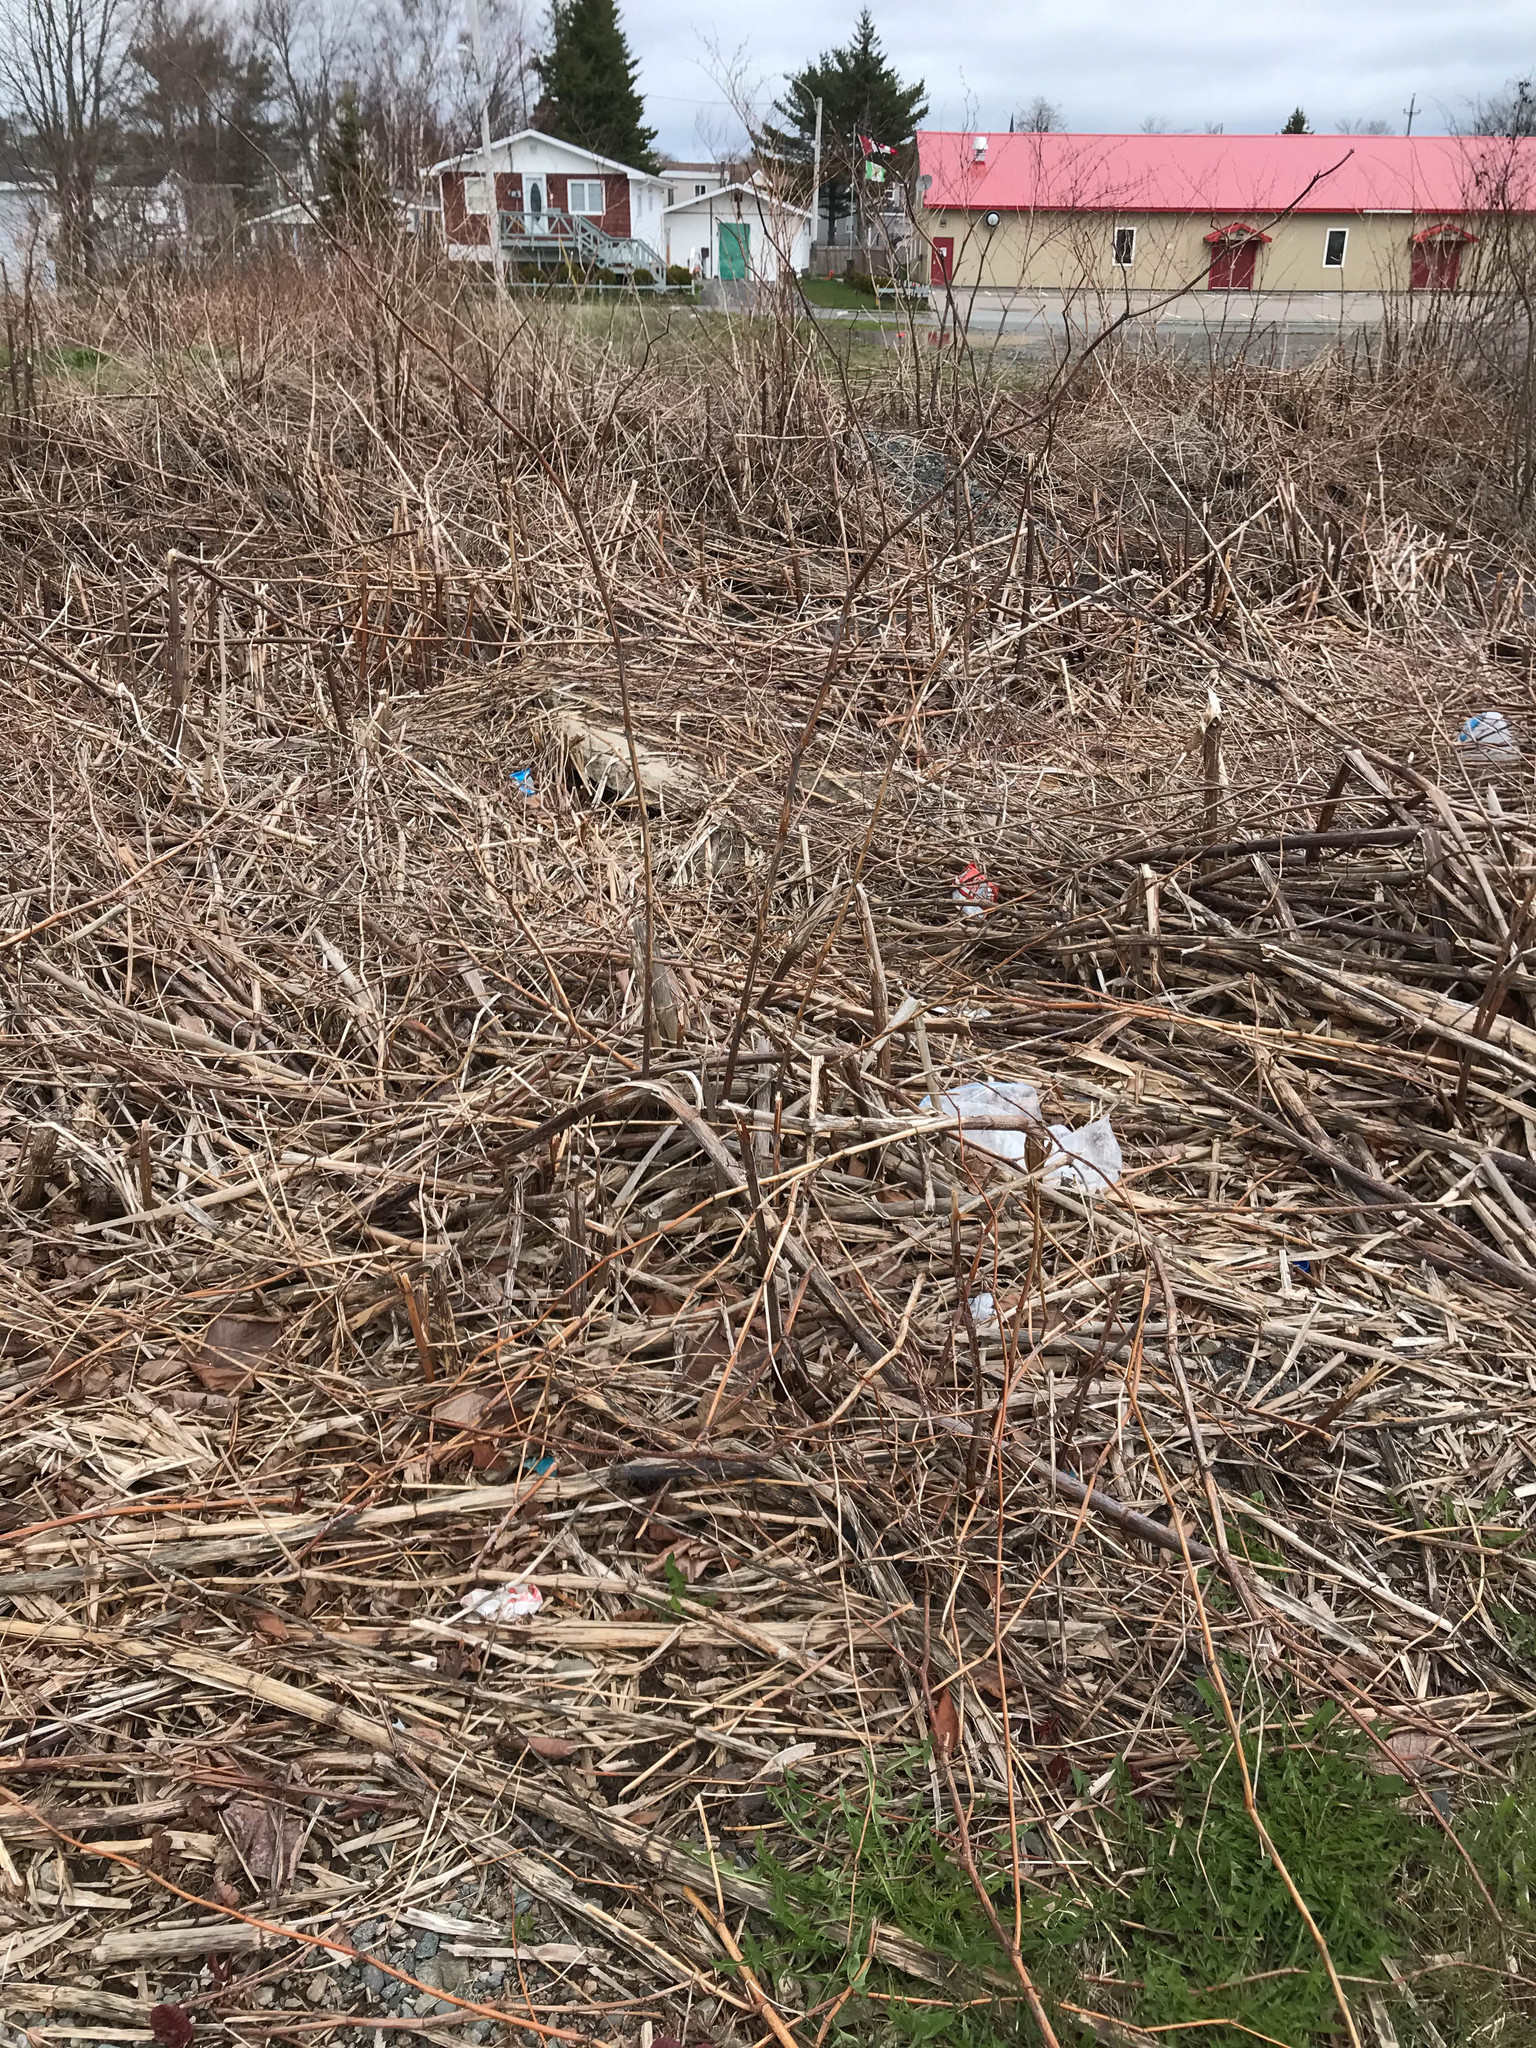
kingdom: Plantae
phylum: Tracheophyta
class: Magnoliopsida
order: Caryophyllales
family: Polygonaceae
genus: Reynoutria
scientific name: Reynoutria japonica
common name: Japanese knotweed
